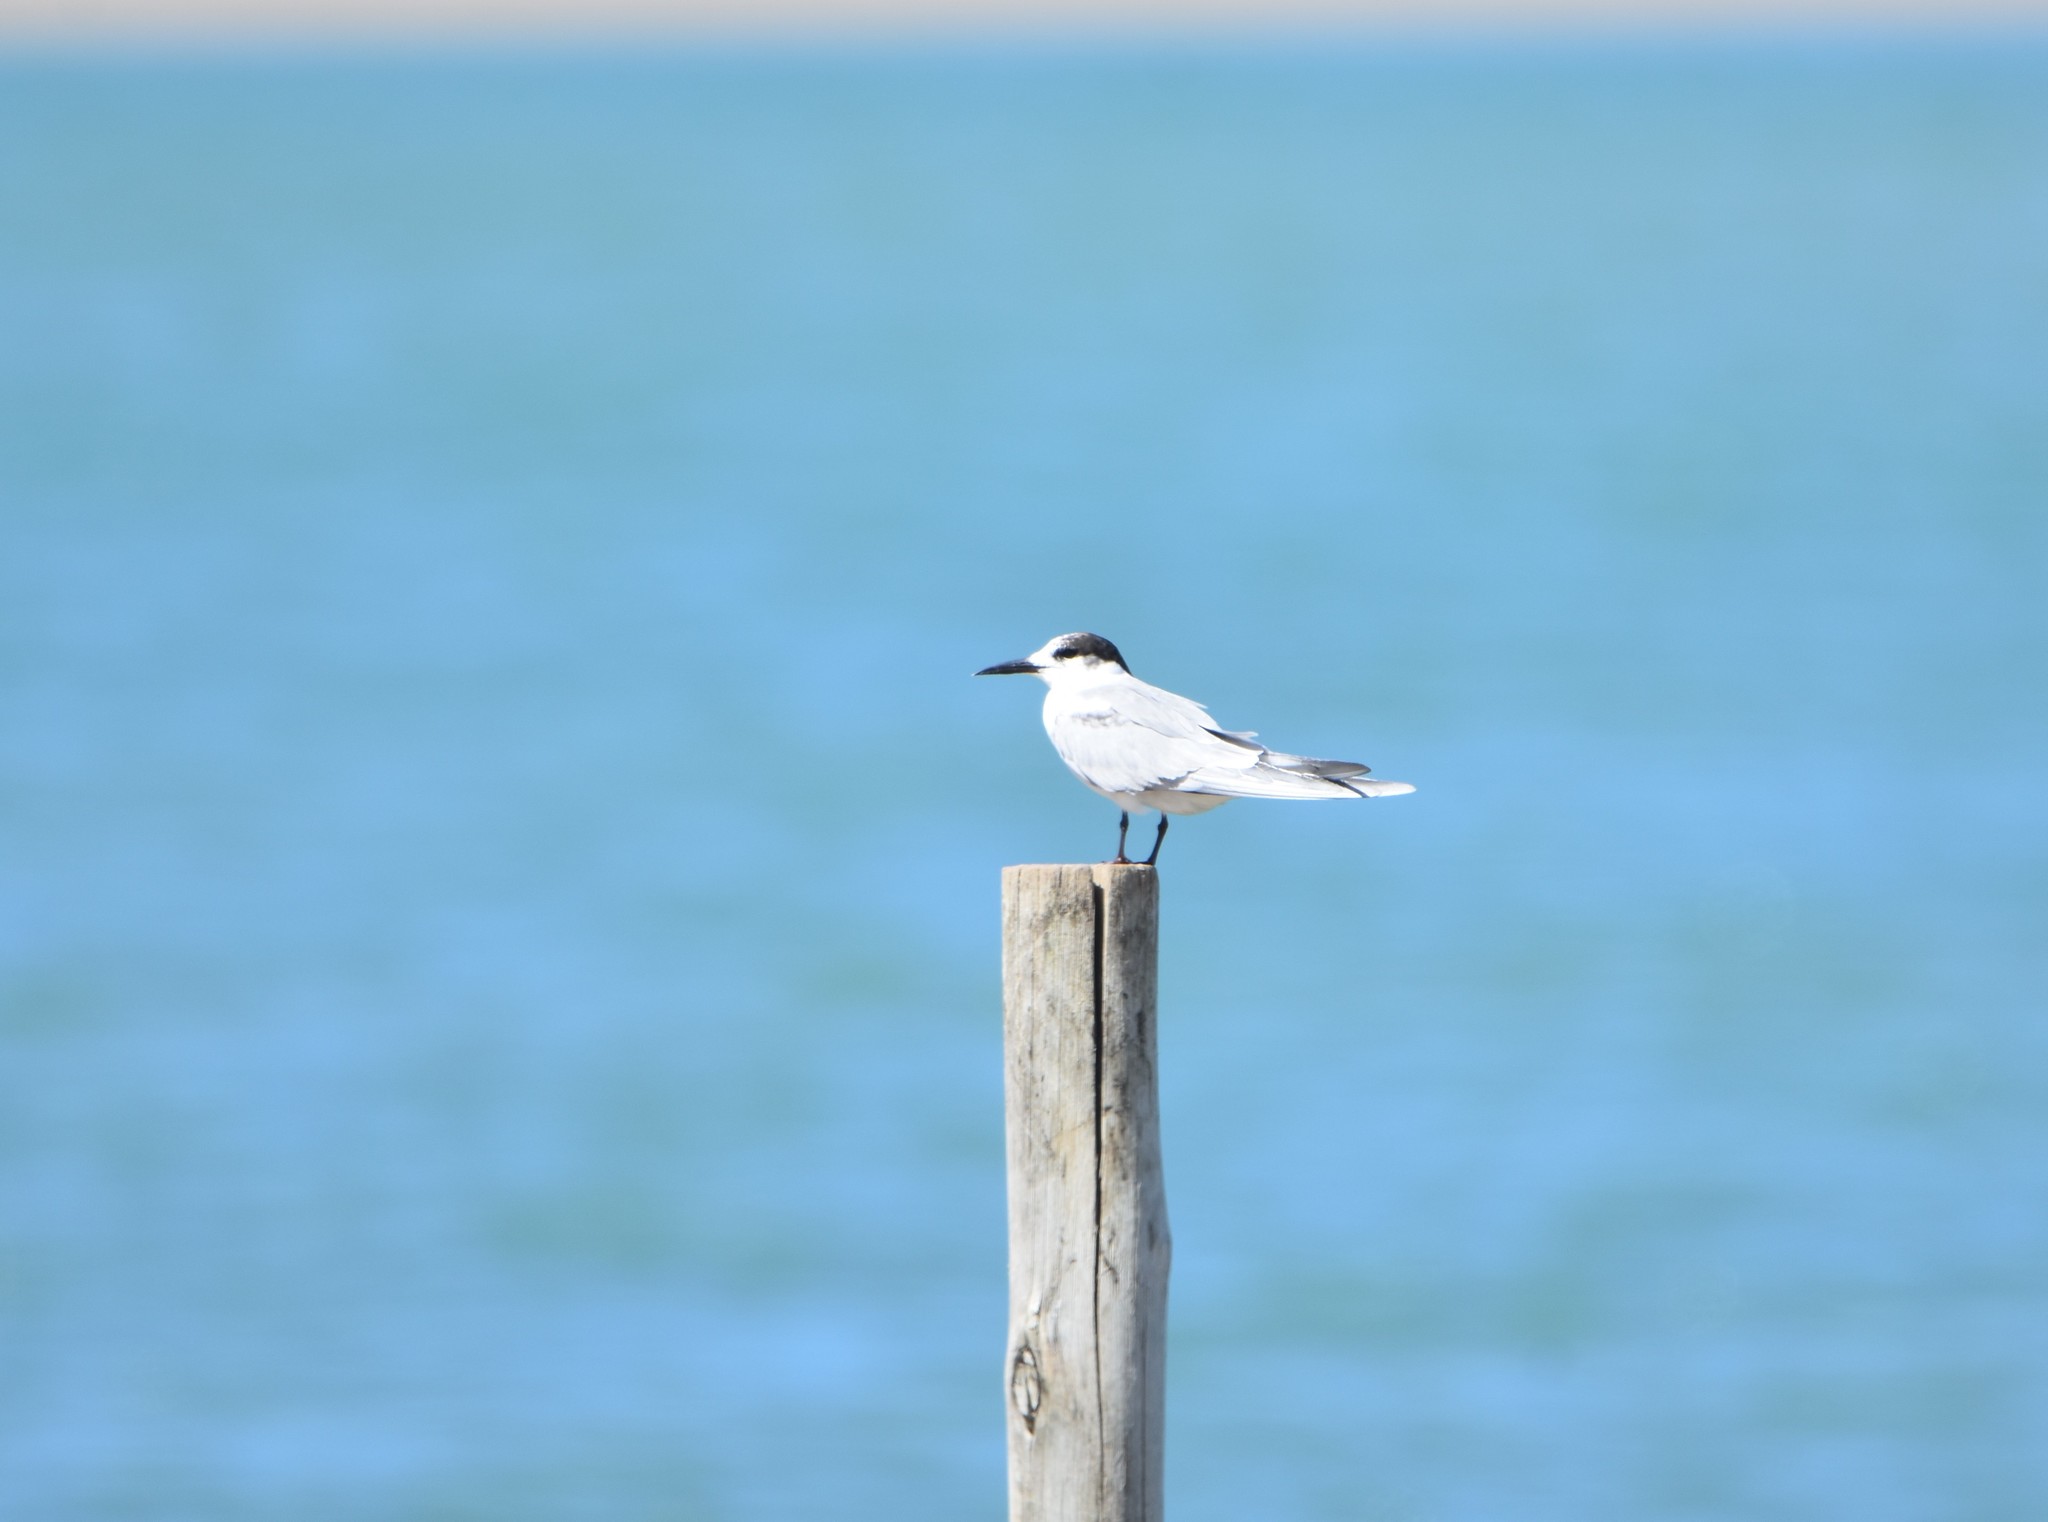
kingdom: Animalia
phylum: Chordata
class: Aves
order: Charadriiformes
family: Laridae
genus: Sterna
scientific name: Sterna hirundo
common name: Common tern
